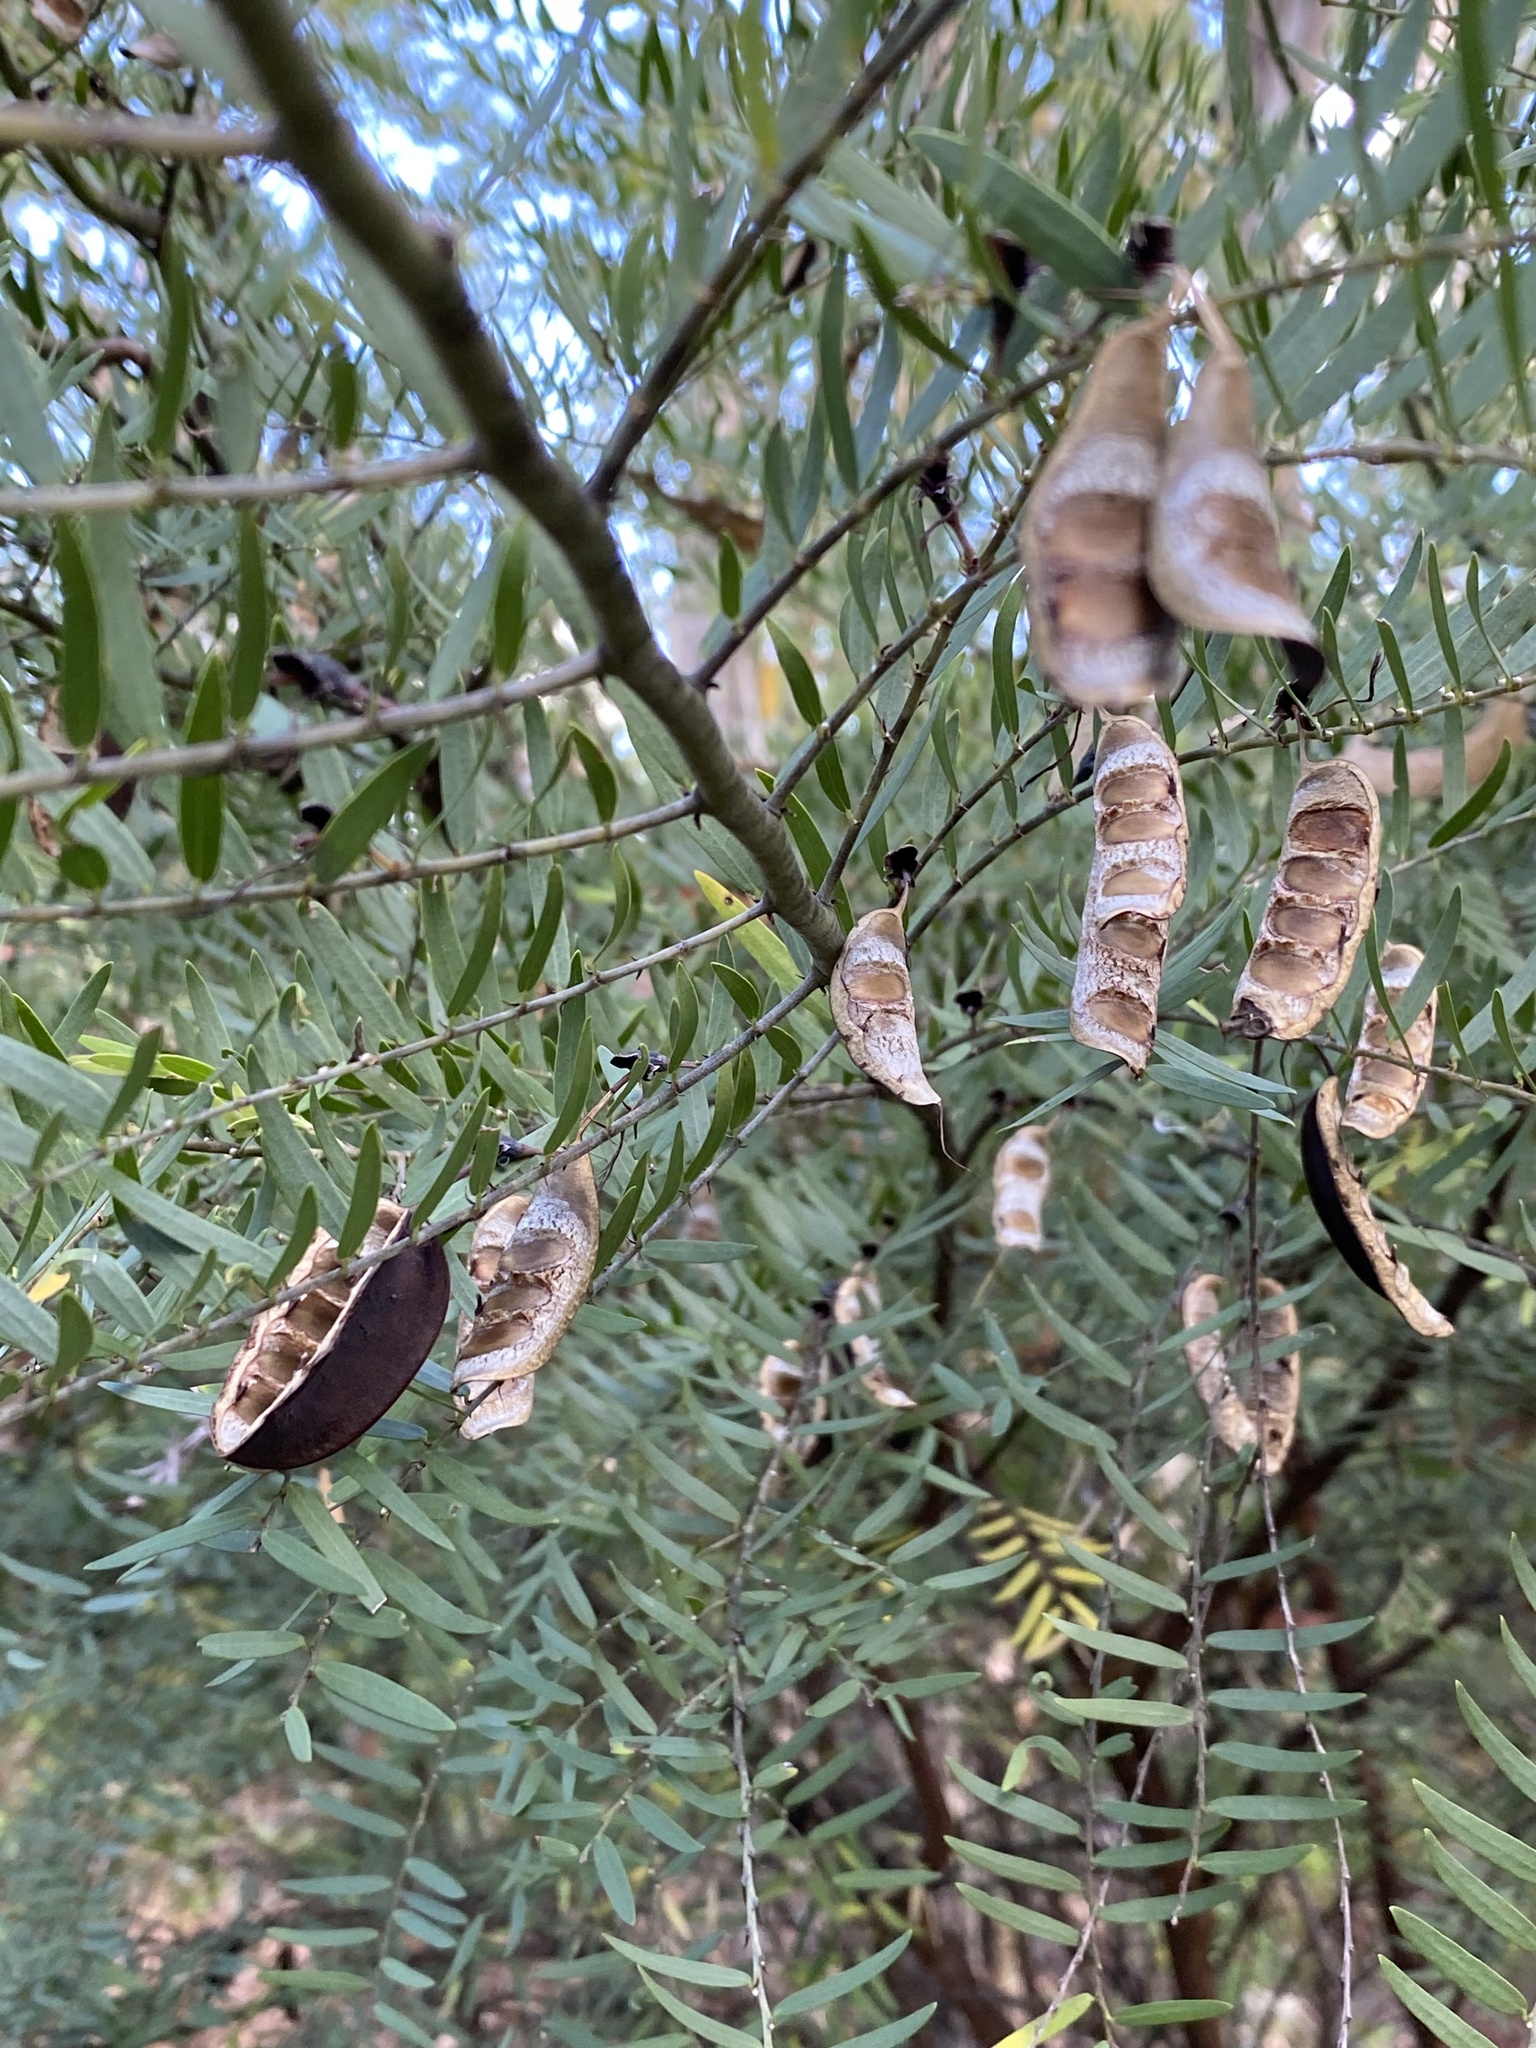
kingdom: Plantae
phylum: Tracheophyta
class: Magnoliopsida
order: Fabales
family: Fabaceae
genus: Bossiaea
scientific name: Bossiaea rupicola
